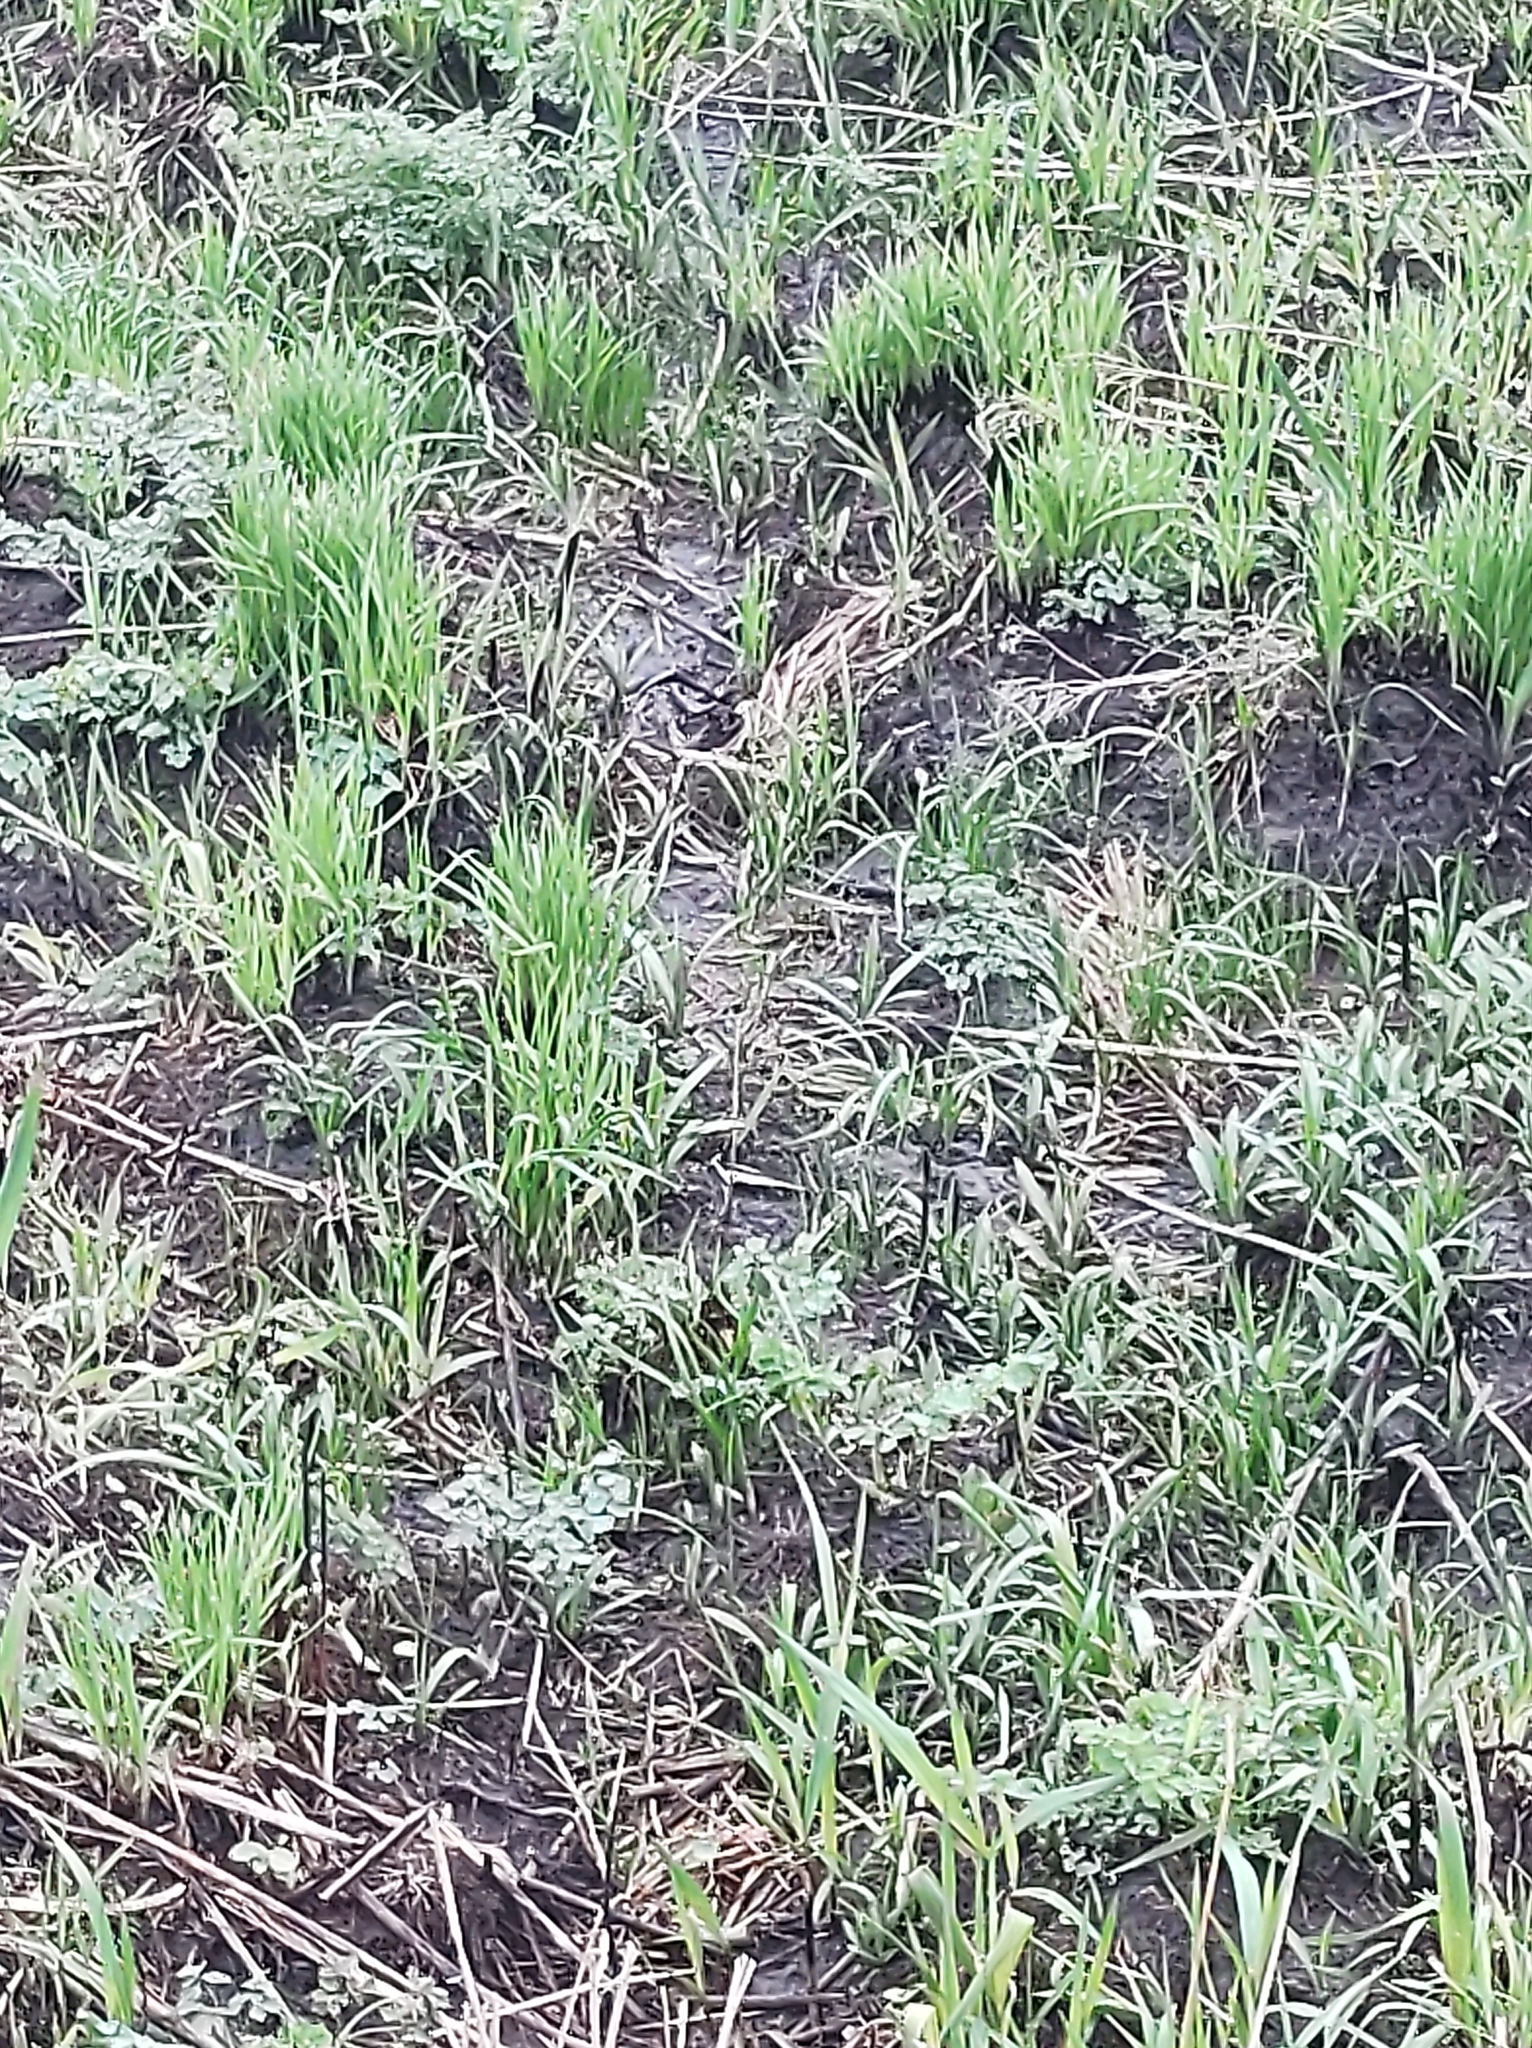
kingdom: Plantae
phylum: Tracheophyta
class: Liliopsida
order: Poales
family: Cyperaceae
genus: Carex
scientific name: Carex stricta
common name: Hummock sedge
